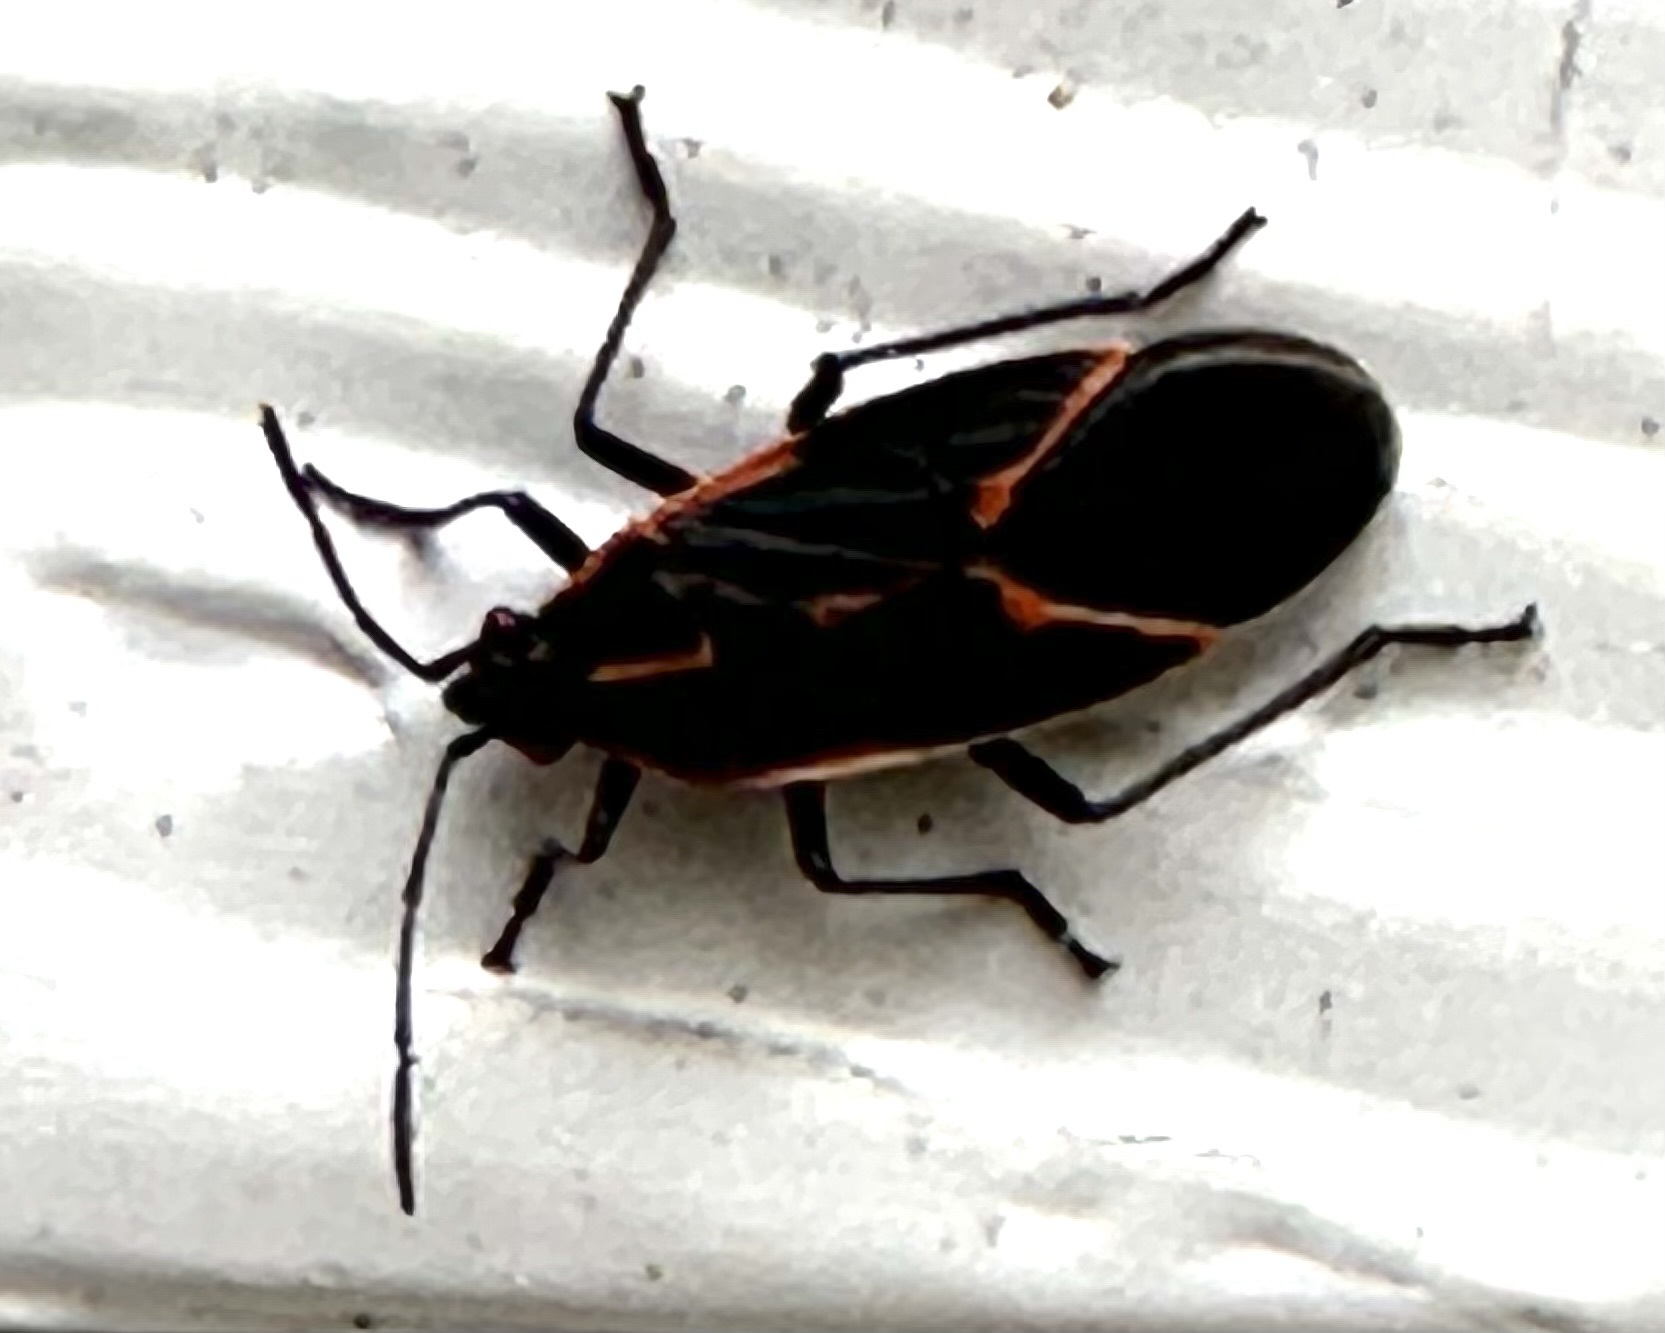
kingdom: Animalia
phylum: Arthropoda
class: Insecta
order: Hemiptera
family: Rhopalidae
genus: Boisea
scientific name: Boisea trivittata
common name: Boxelder bug
